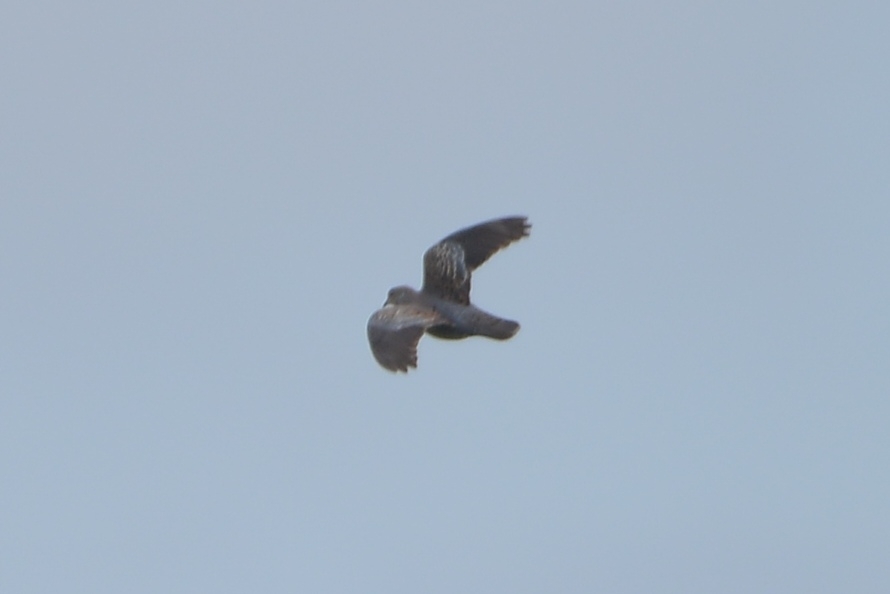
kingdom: Animalia
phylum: Chordata
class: Aves
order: Columbiformes
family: Columbidae
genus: Streptopelia
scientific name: Streptopelia orientalis
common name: Oriental turtle dove
